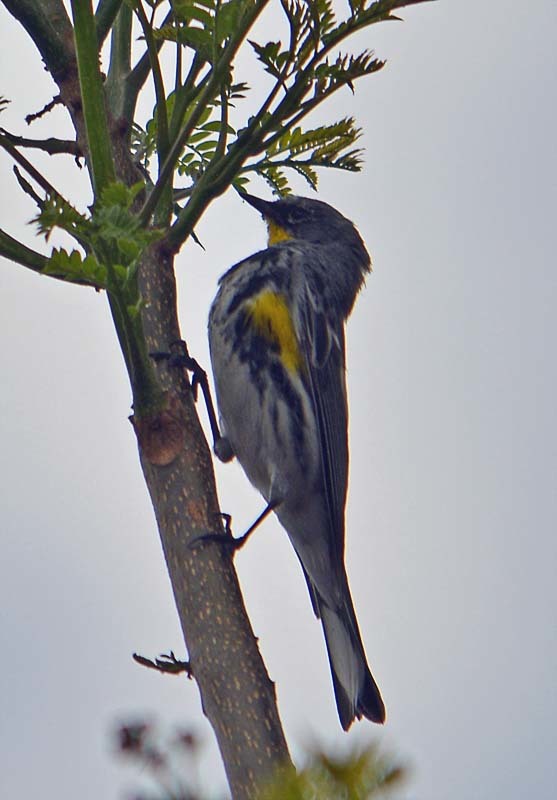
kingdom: Animalia
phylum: Chordata
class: Aves
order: Passeriformes
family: Parulidae
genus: Setophaga
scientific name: Setophaga auduboni
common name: Audubon's warbler
